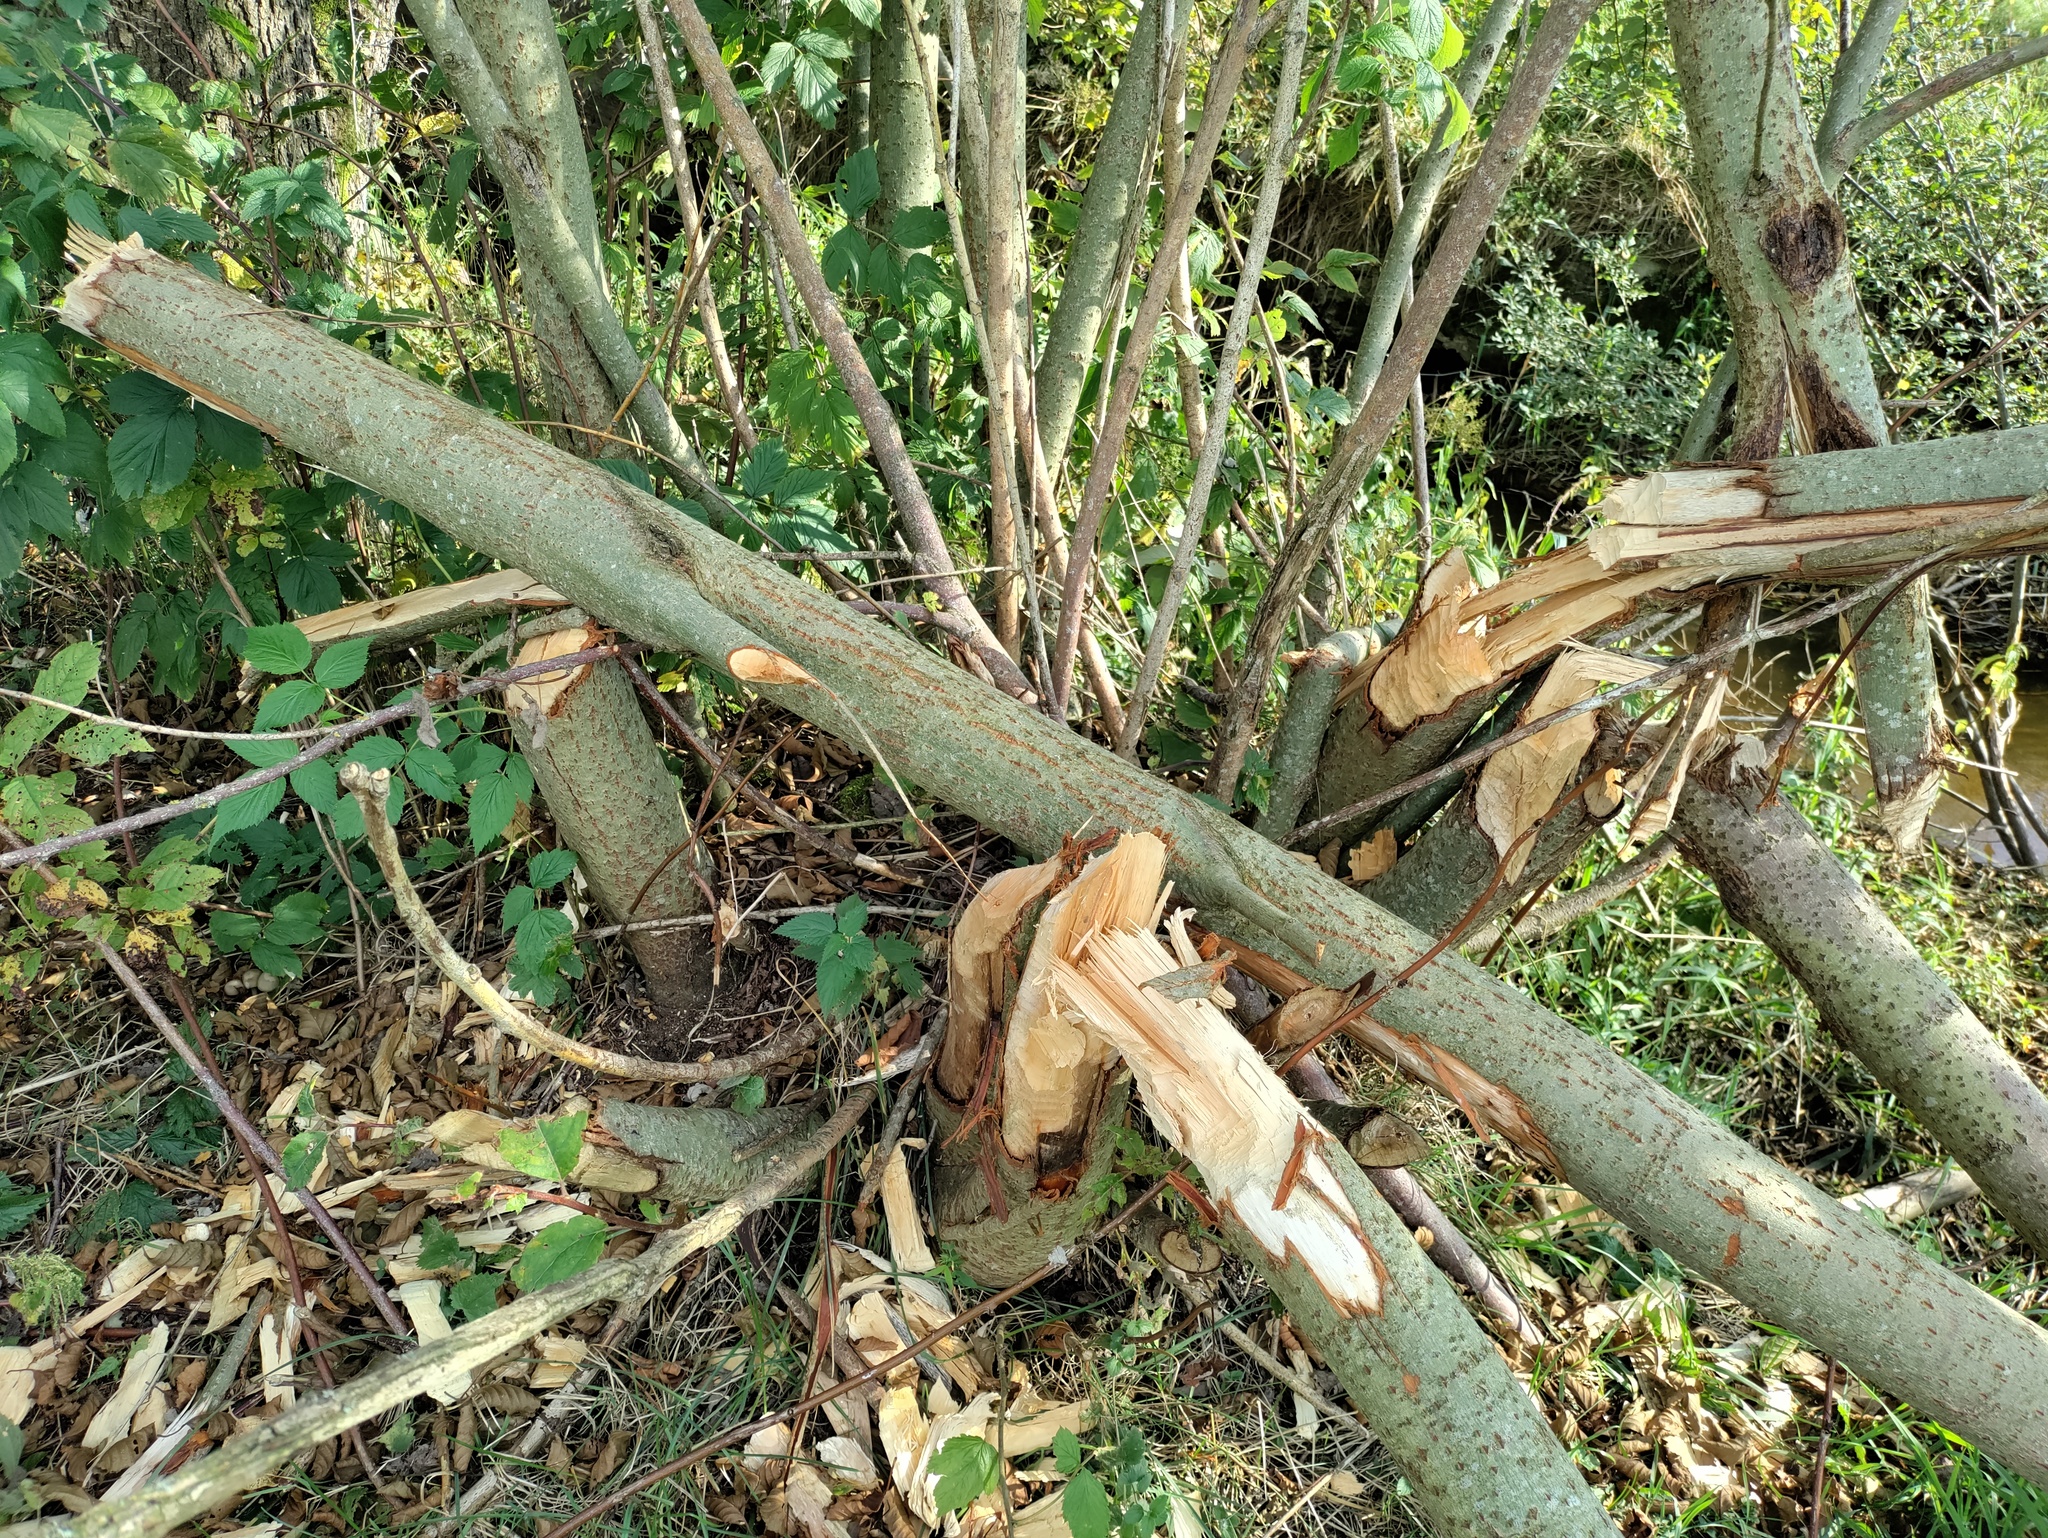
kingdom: Animalia
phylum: Chordata
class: Mammalia
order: Rodentia
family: Castoridae
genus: Castor
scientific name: Castor fiber
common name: Eurasian beaver
